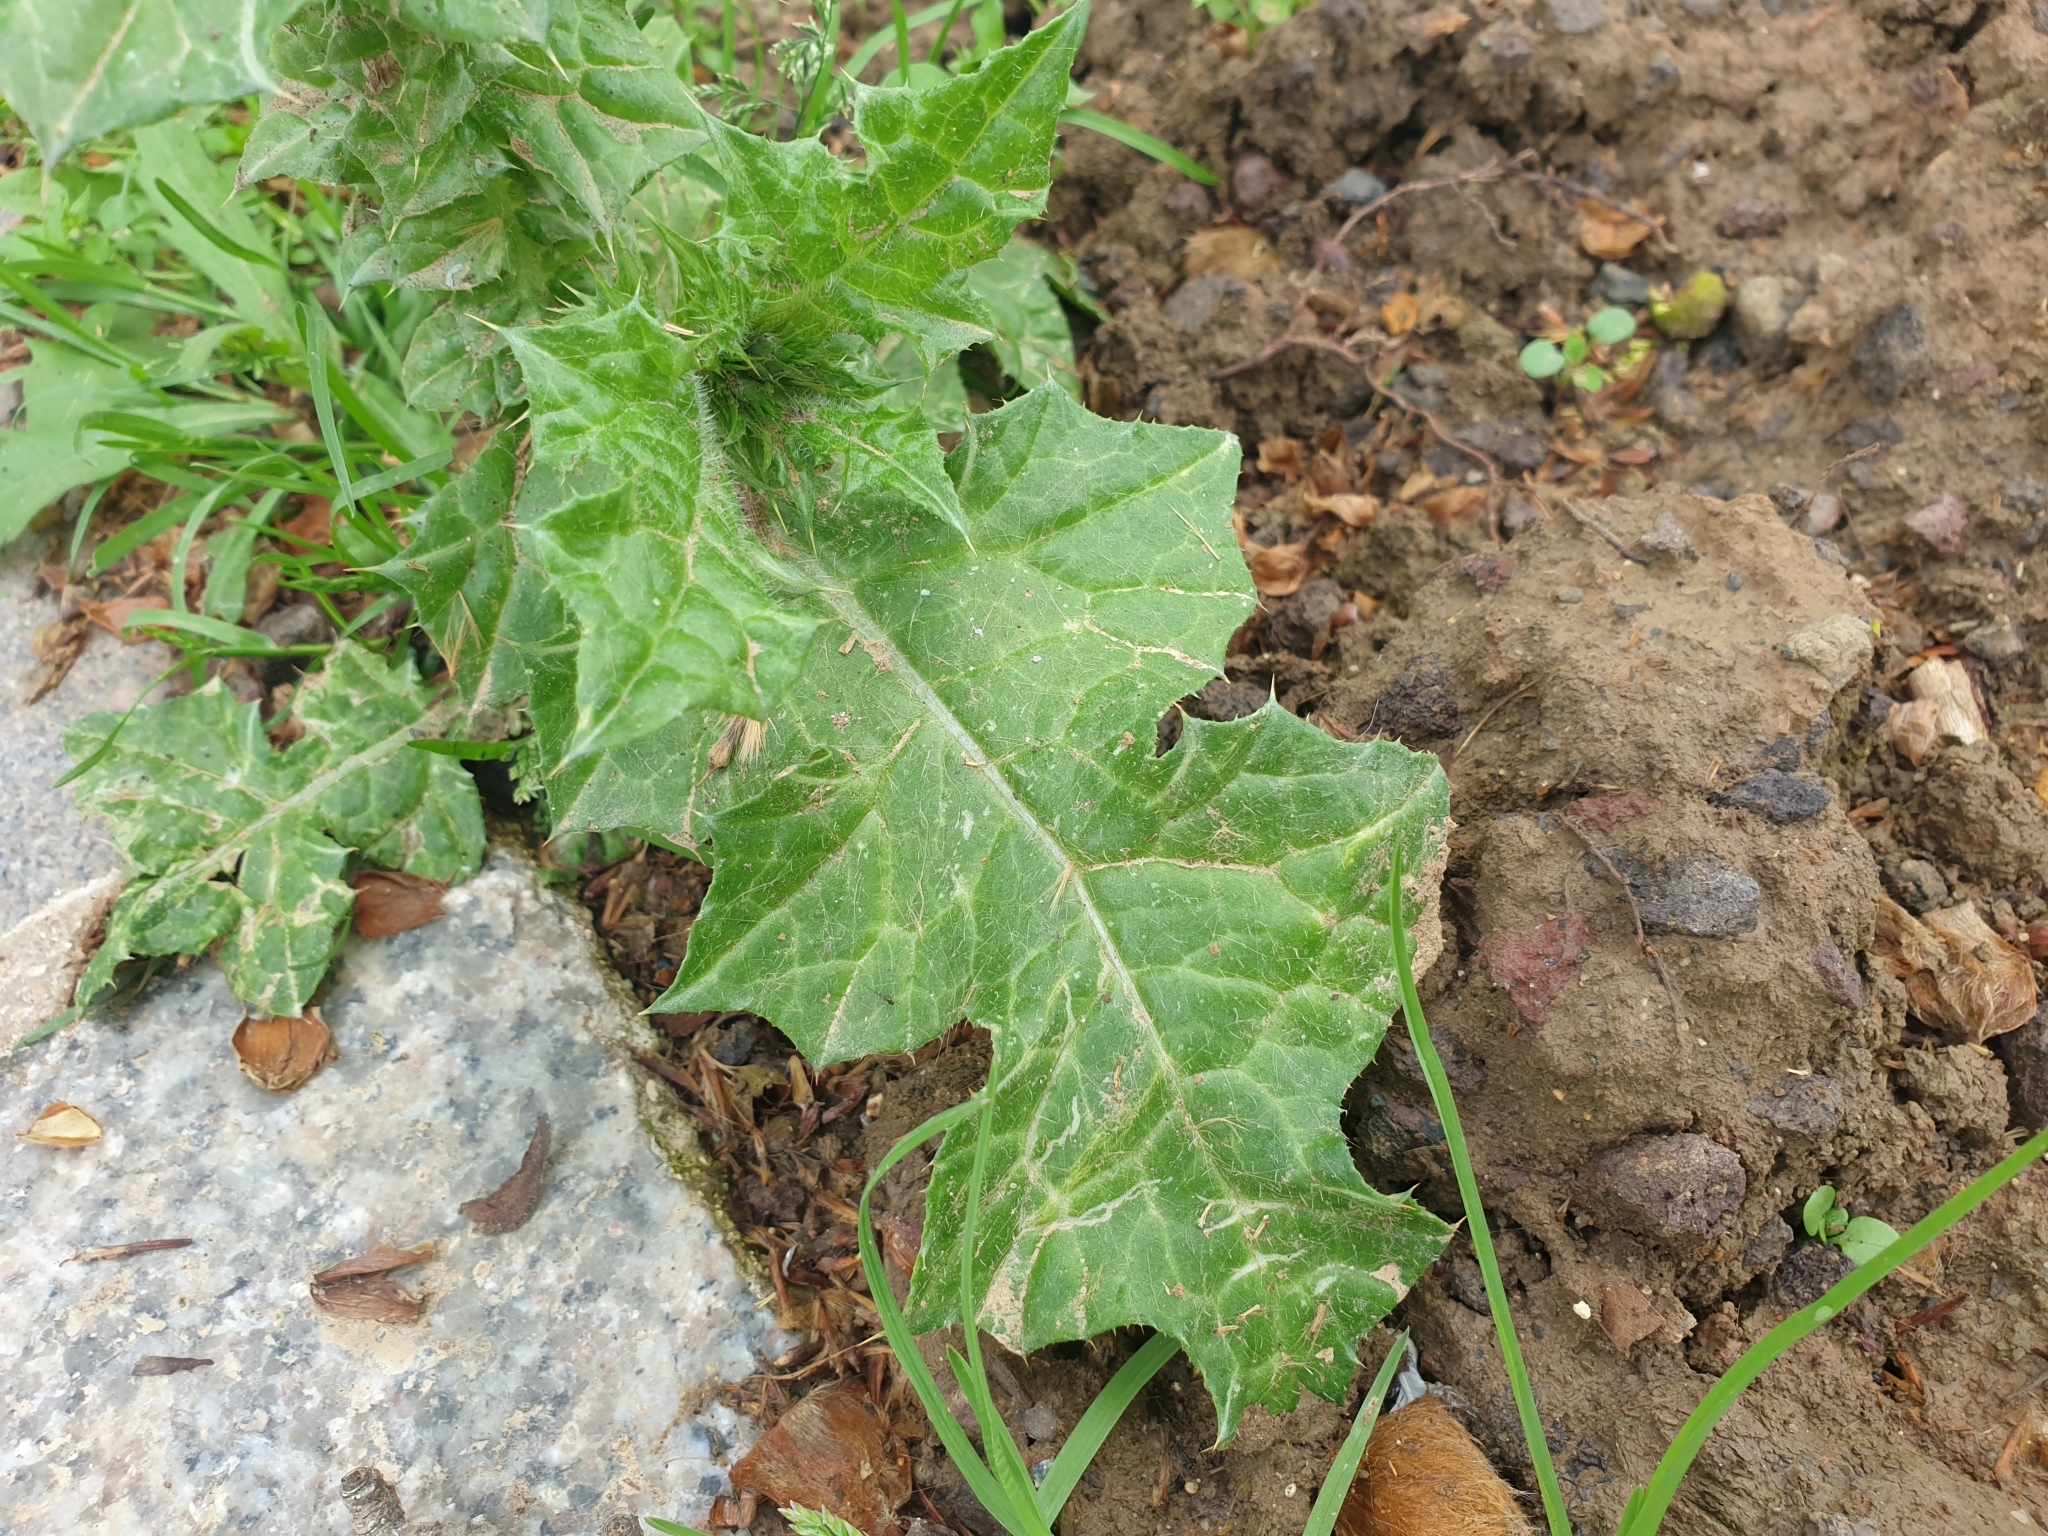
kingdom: Plantae
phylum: Tracheophyta
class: Magnoliopsida
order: Asterales
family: Asteraceae
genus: Carduus
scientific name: Carduus tenuiflorus
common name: Slender thistle
